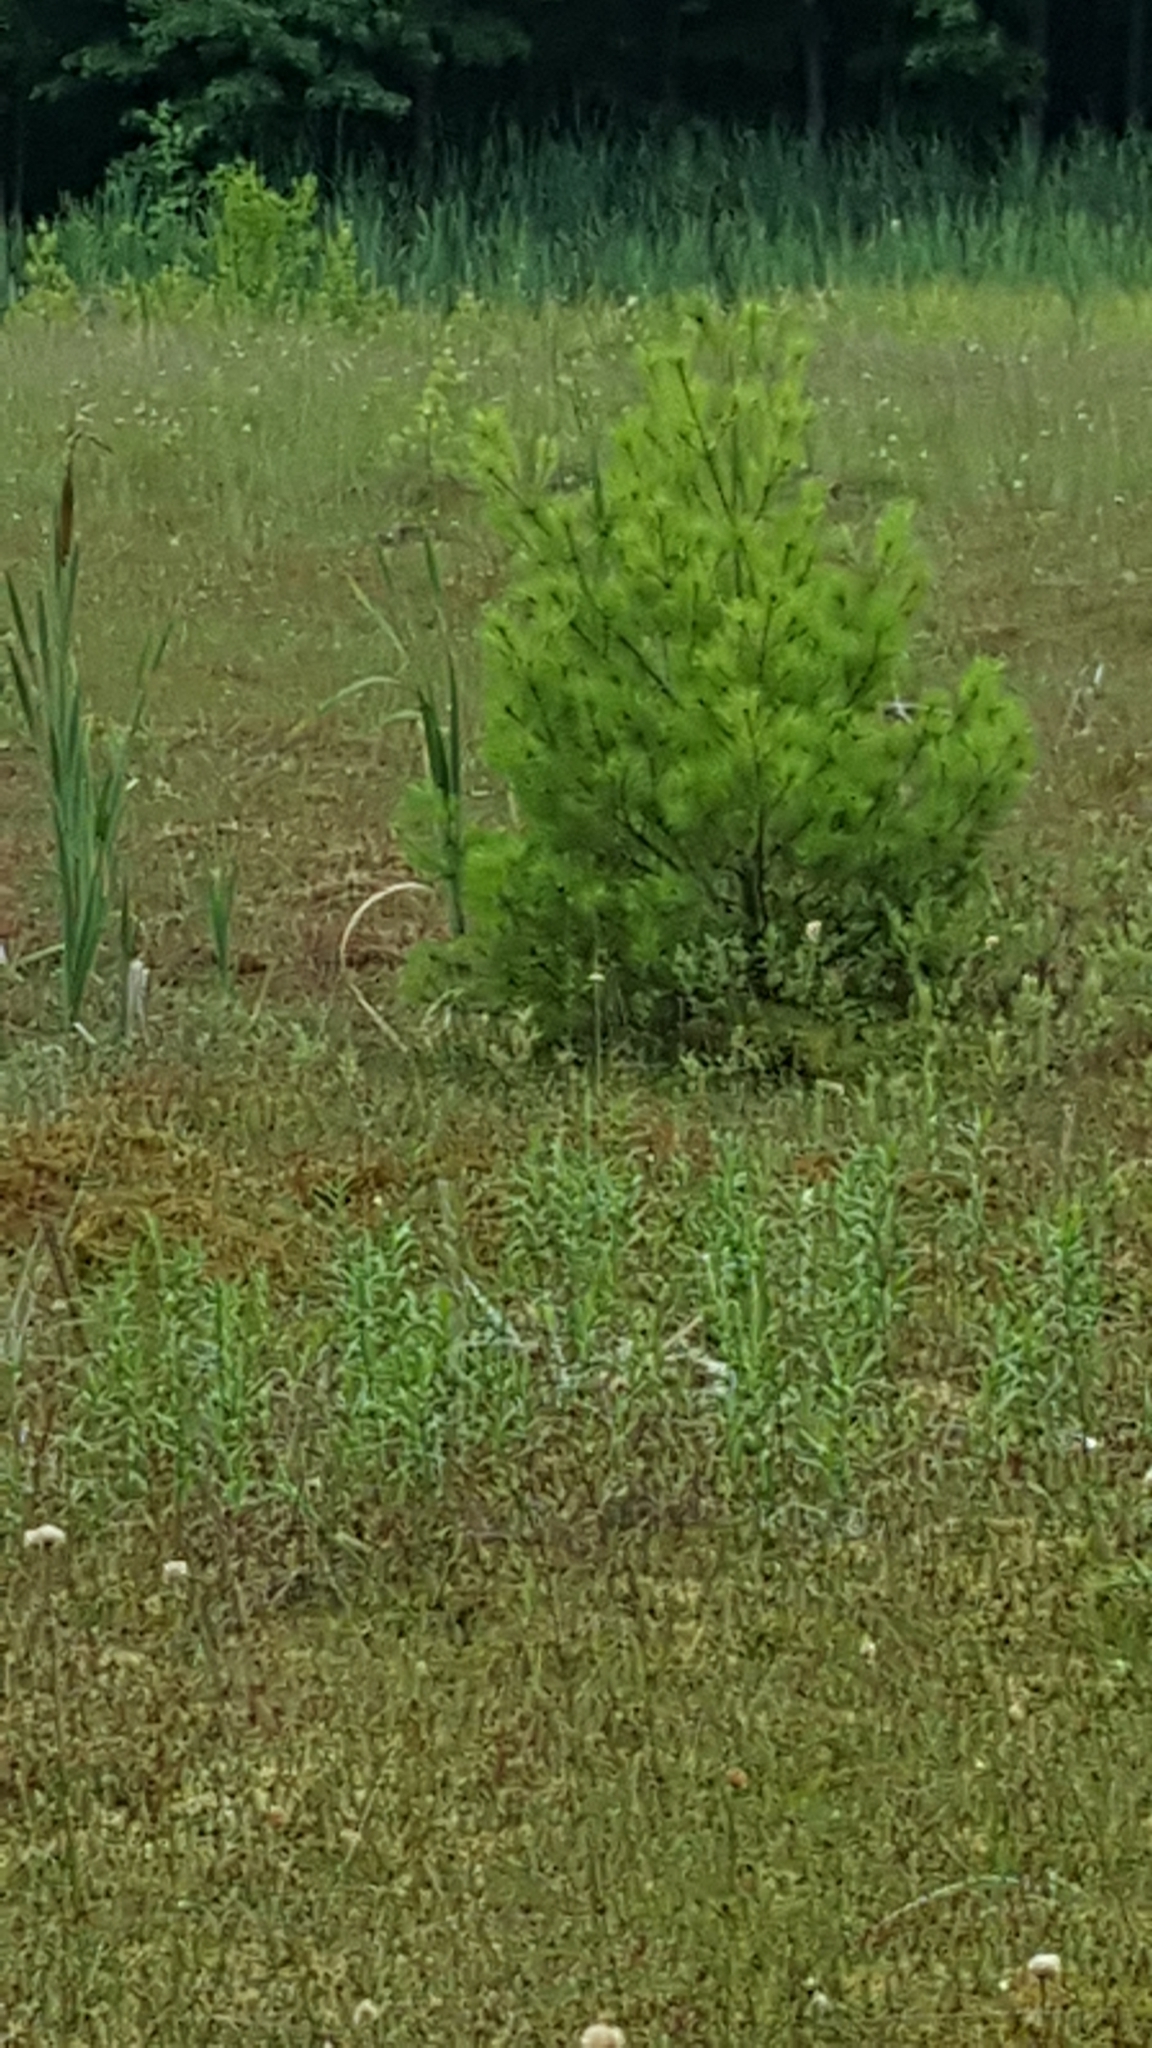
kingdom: Plantae
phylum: Tracheophyta
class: Pinopsida
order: Pinales
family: Pinaceae
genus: Pinus
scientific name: Pinus strobus
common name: Weymouth pine
